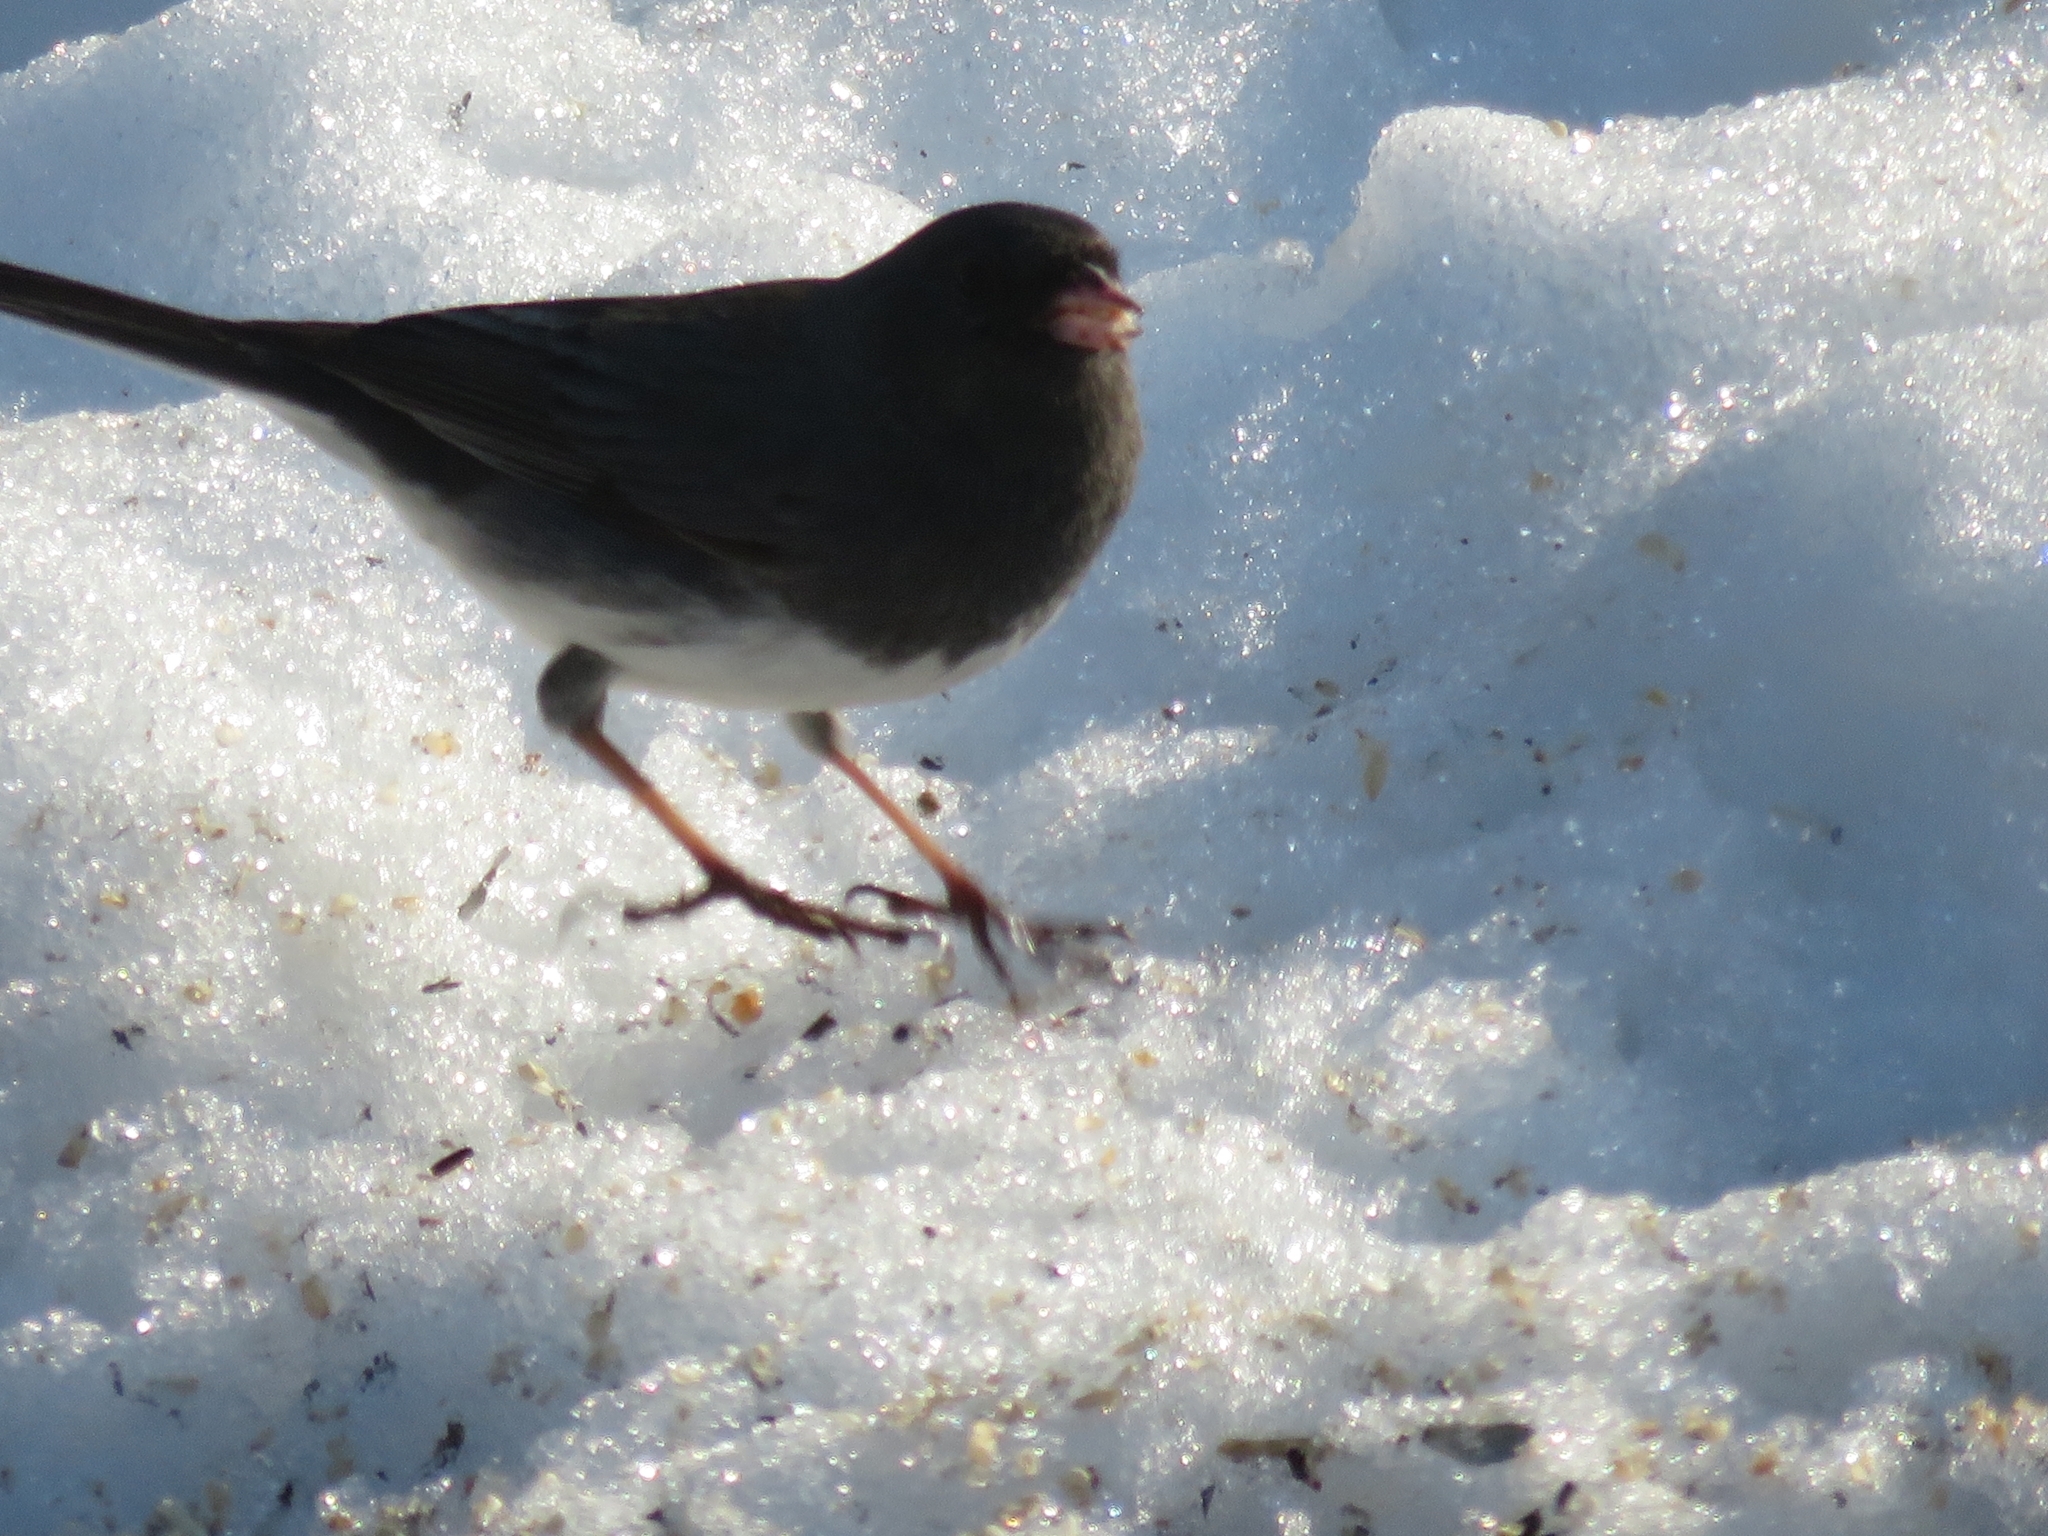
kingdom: Animalia
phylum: Chordata
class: Aves
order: Passeriformes
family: Passerellidae
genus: Junco
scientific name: Junco hyemalis
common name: Dark-eyed junco
